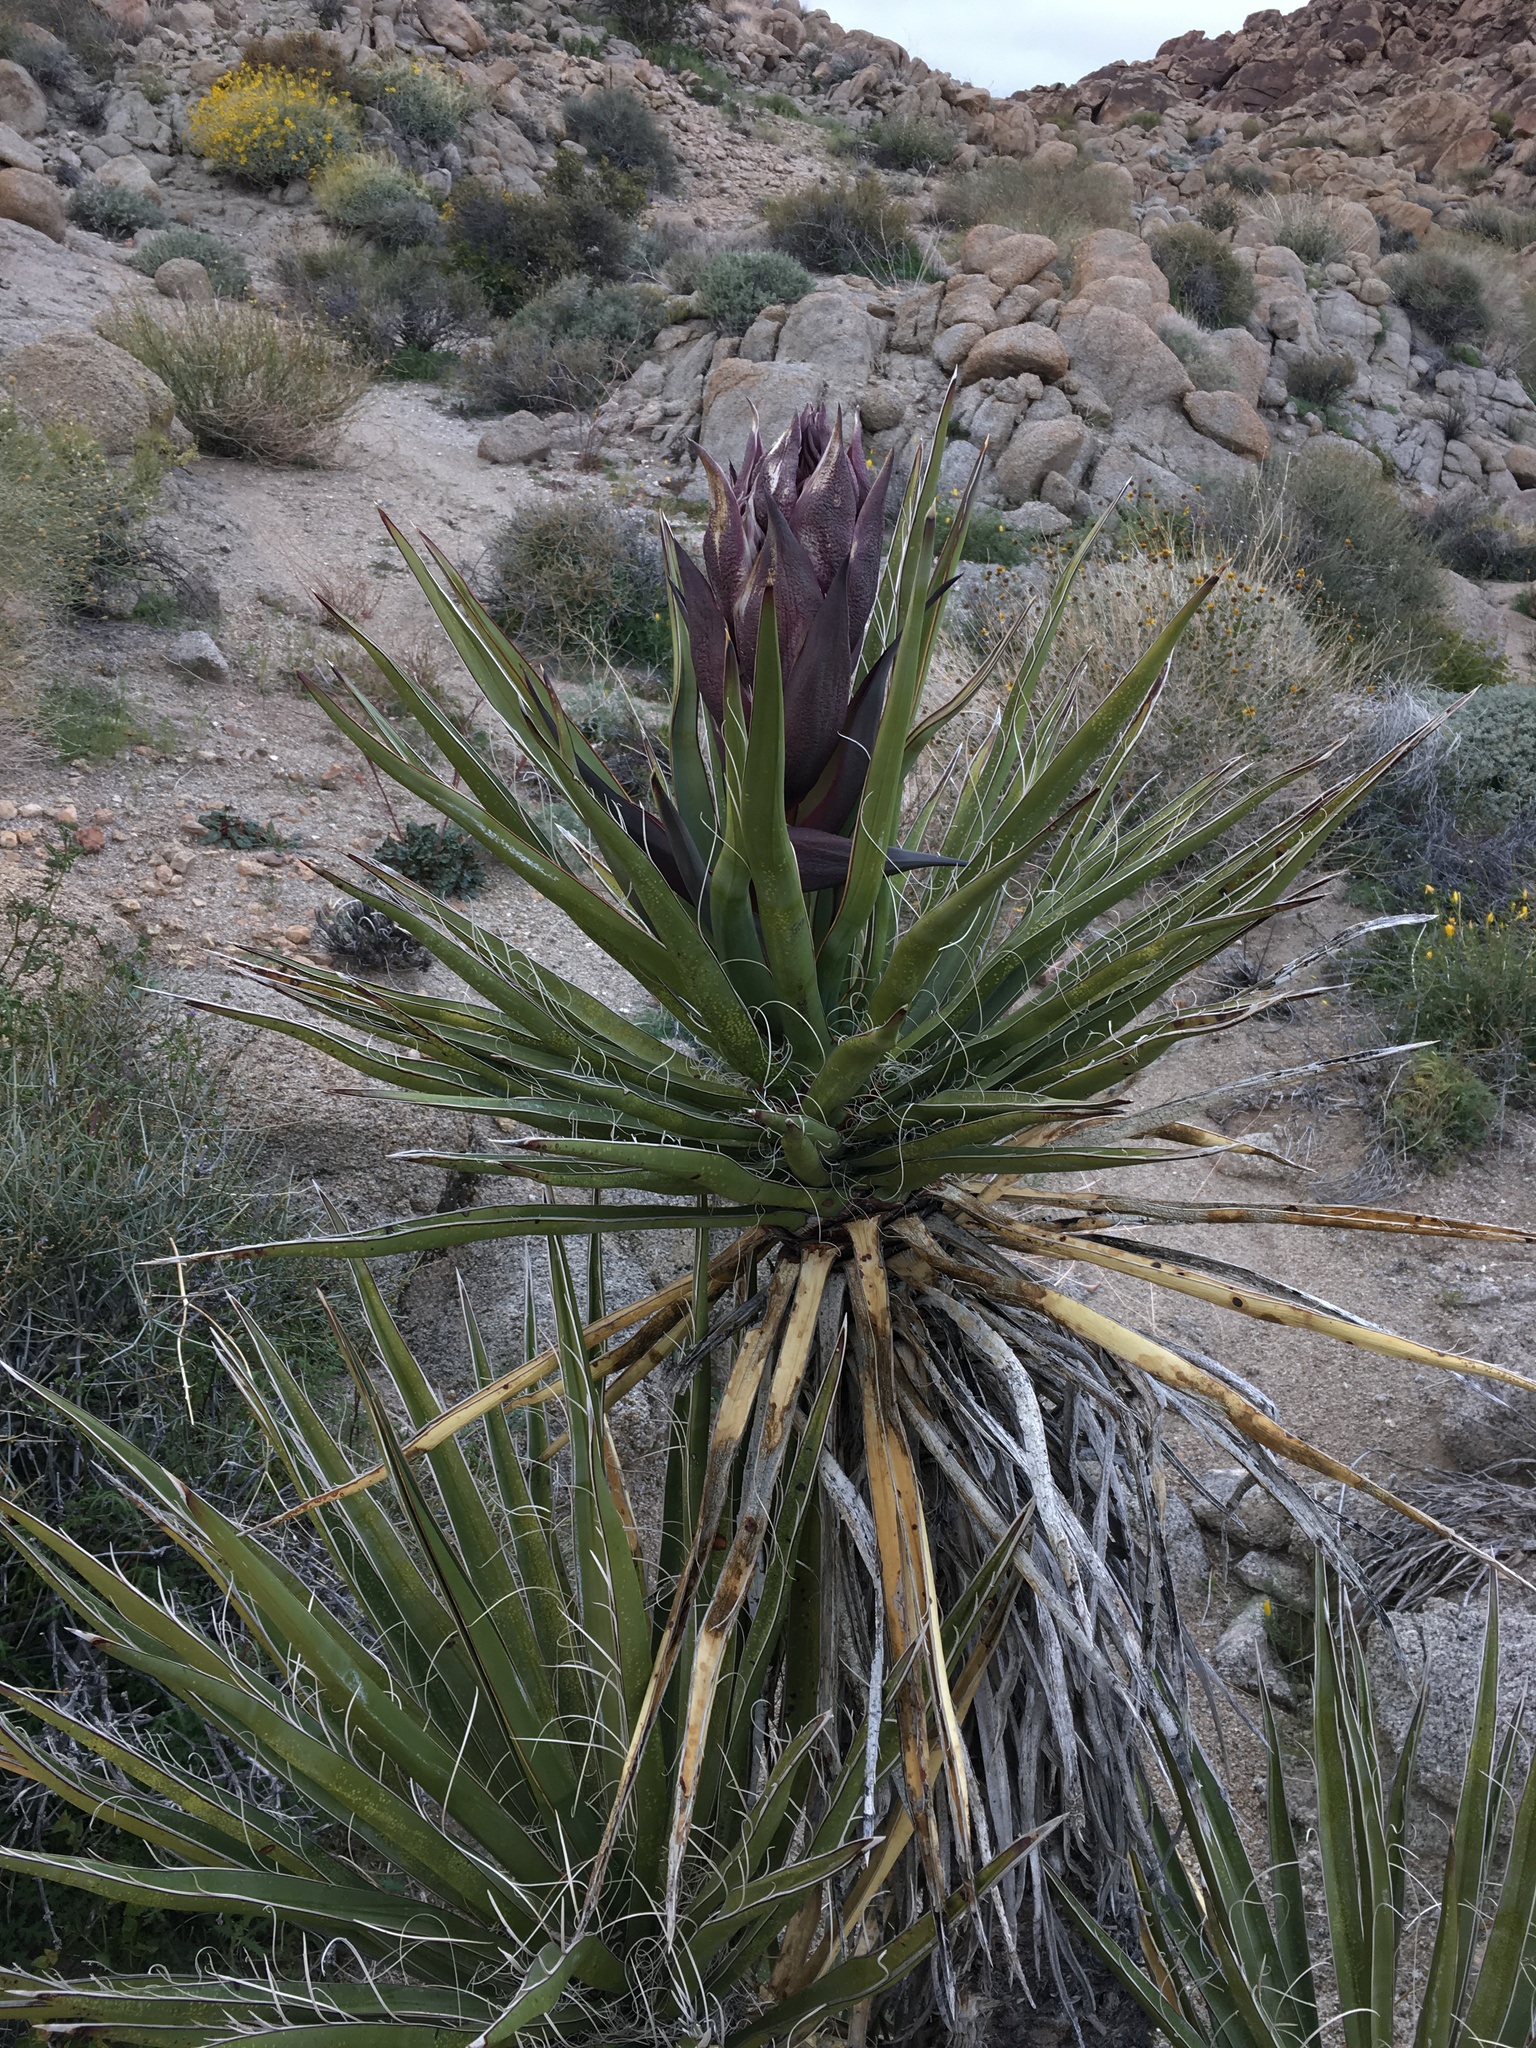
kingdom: Plantae
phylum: Tracheophyta
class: Liliopsida
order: Asparagales
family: Asparagaceae
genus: Yucca
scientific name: Yucca schidigera
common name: Mojave yucca
